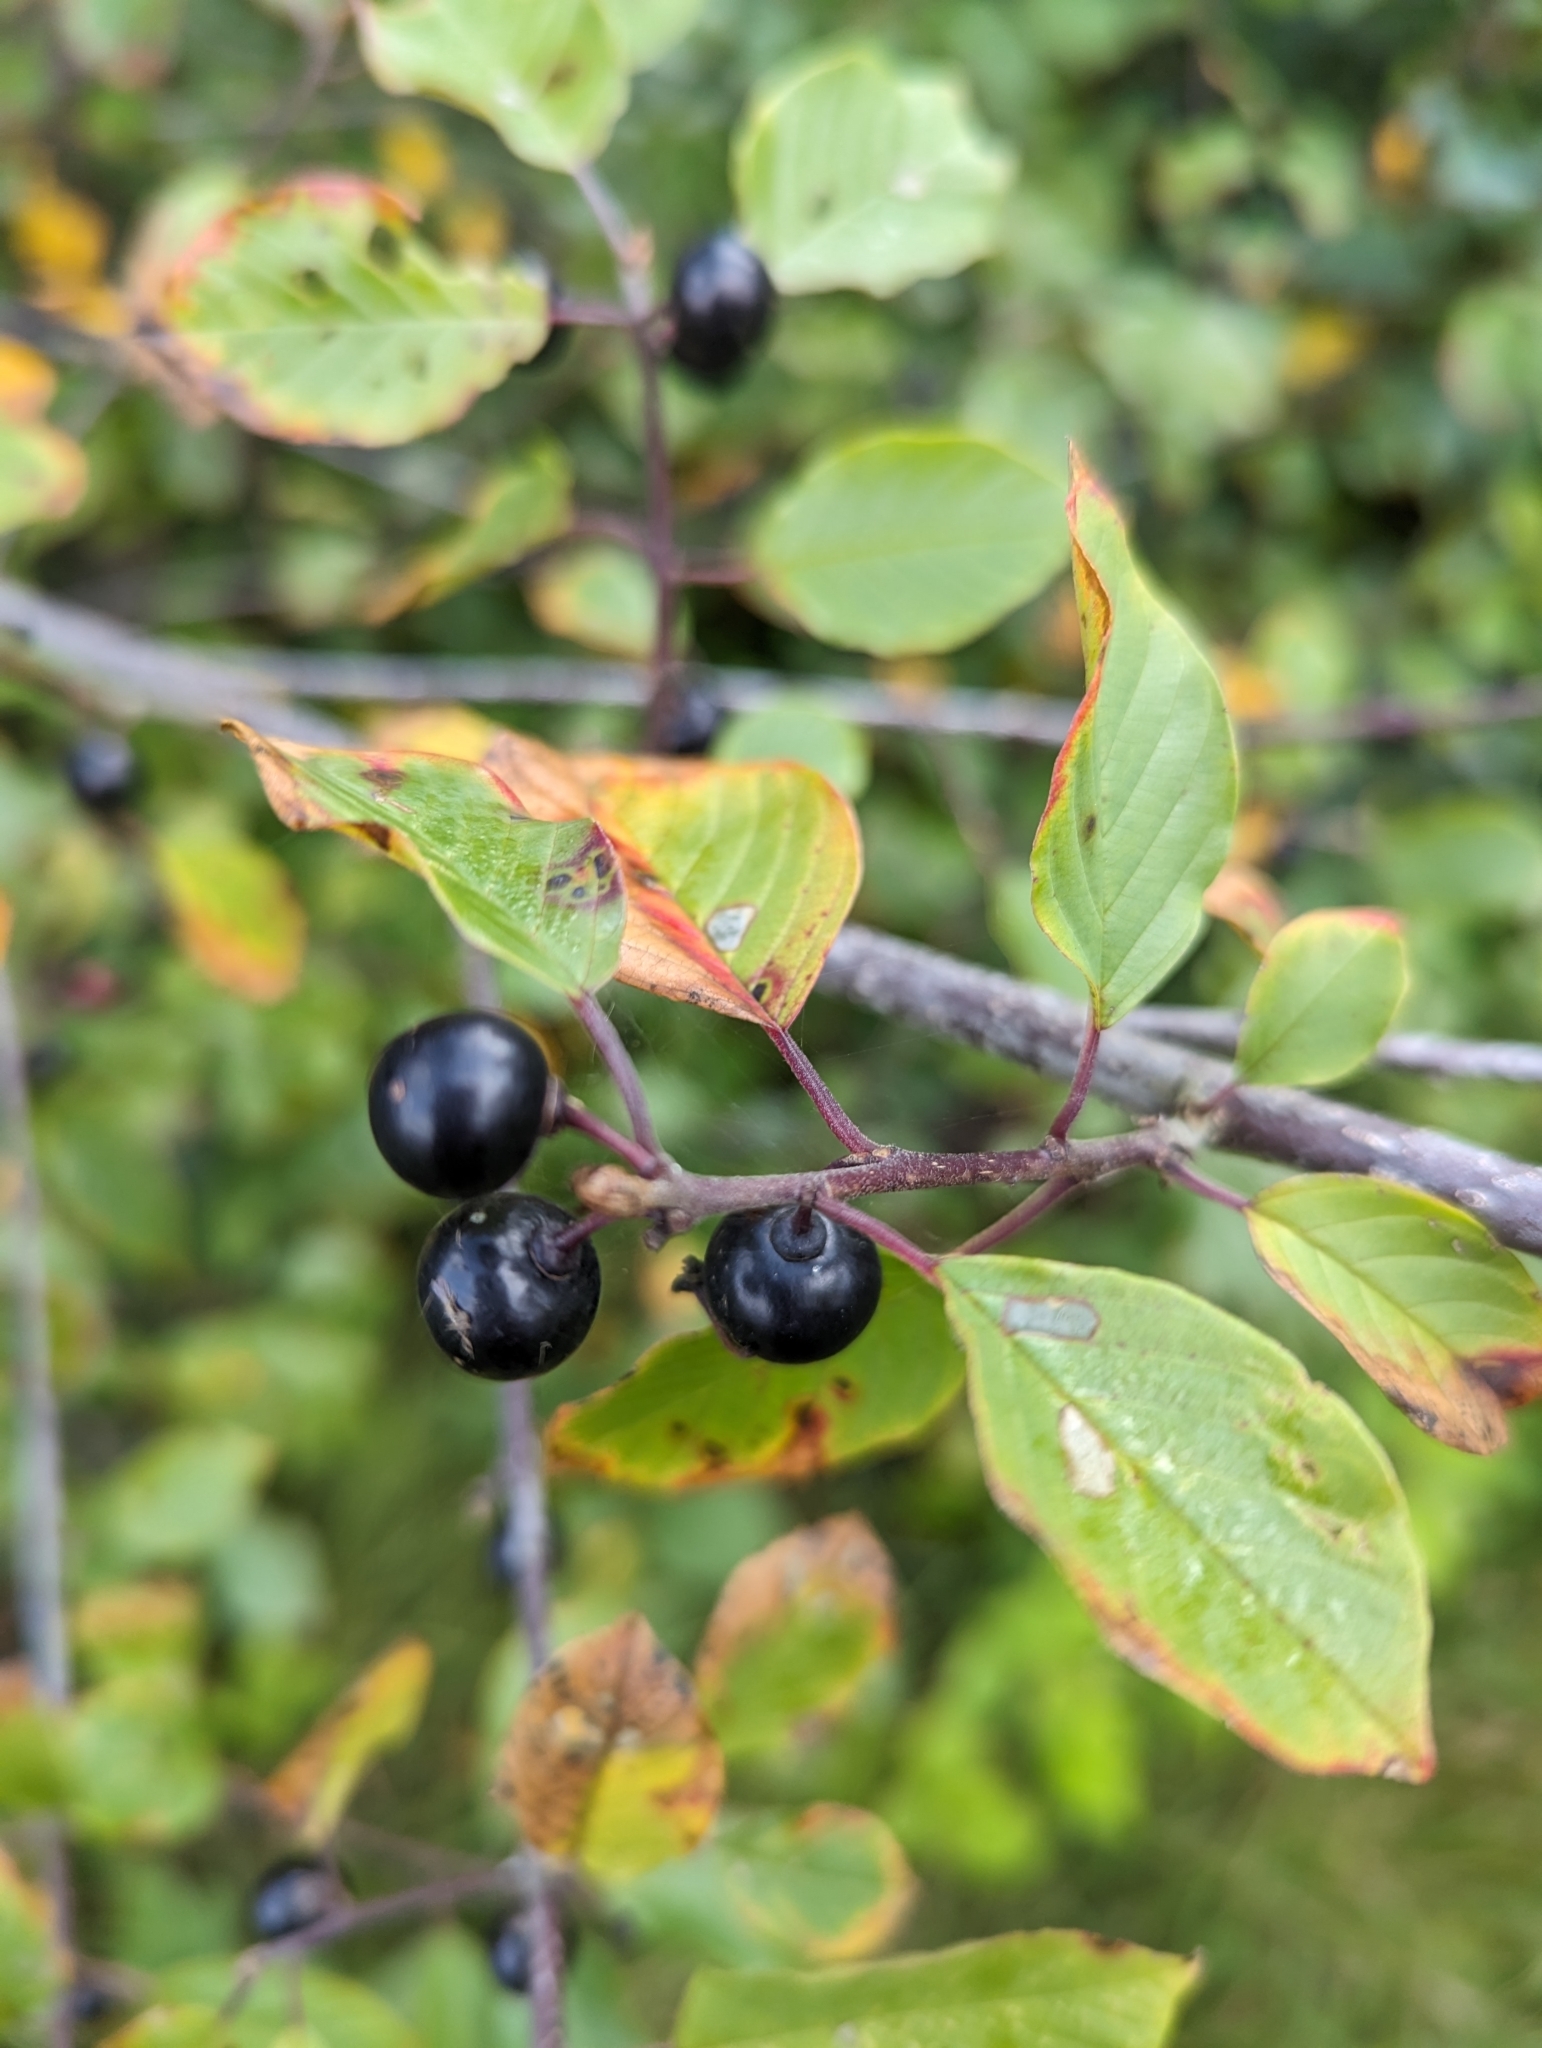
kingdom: Plantae
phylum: Tracheophyta
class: Magnoliopsida
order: Rosales
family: Rhamnaceae
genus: Frangula
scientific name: Frangula alnus
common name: Alder buckthorn
